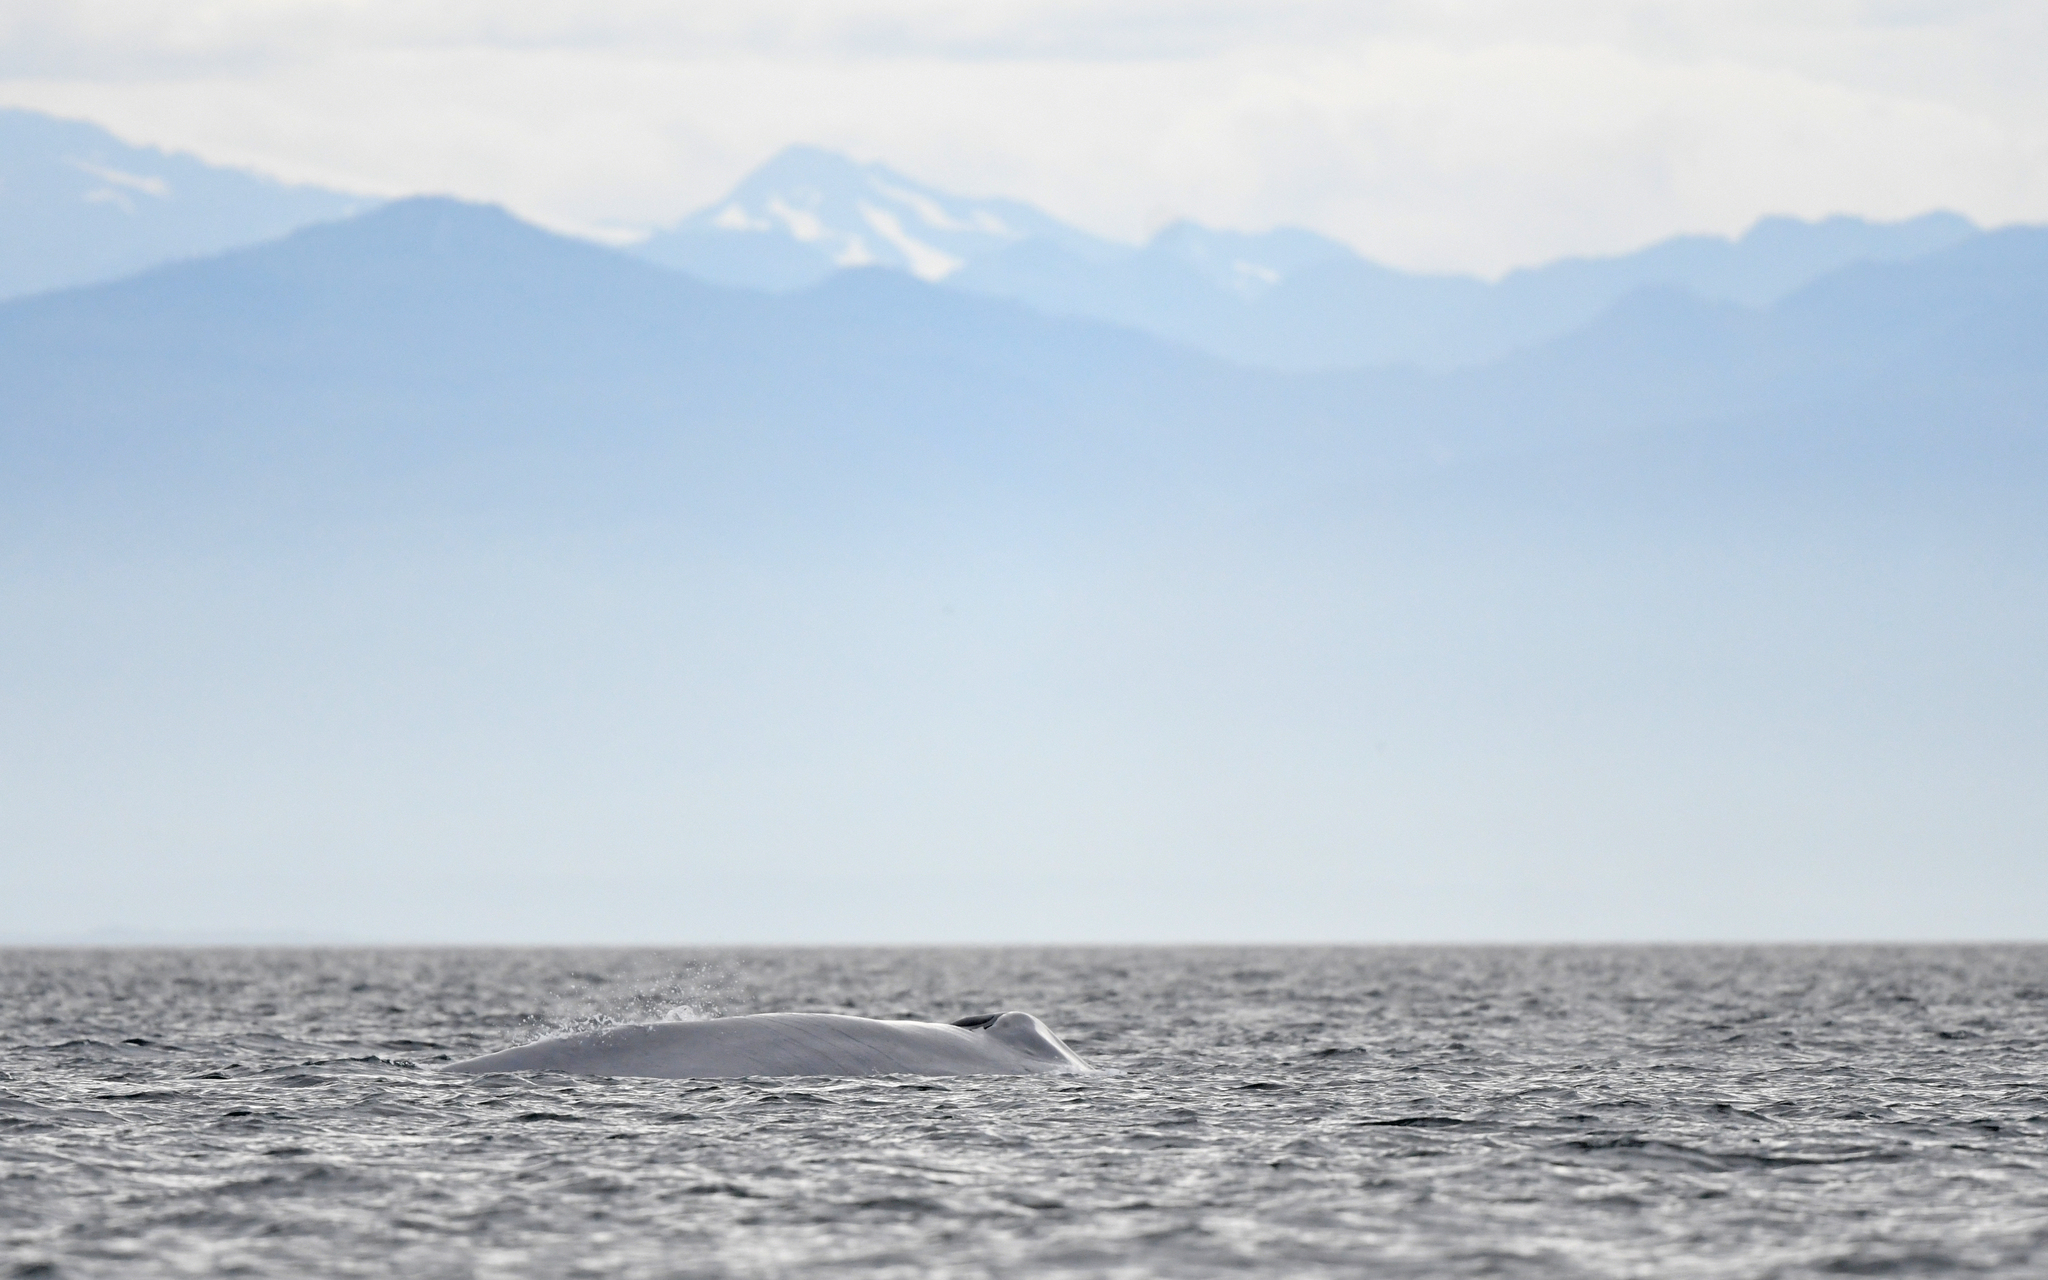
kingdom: Animalia
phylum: Chordata
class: Mammalia
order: Cetacea
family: Balaenopteridae
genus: Balaenoptera
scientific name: Balaenoptera musculus
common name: Blue whale
